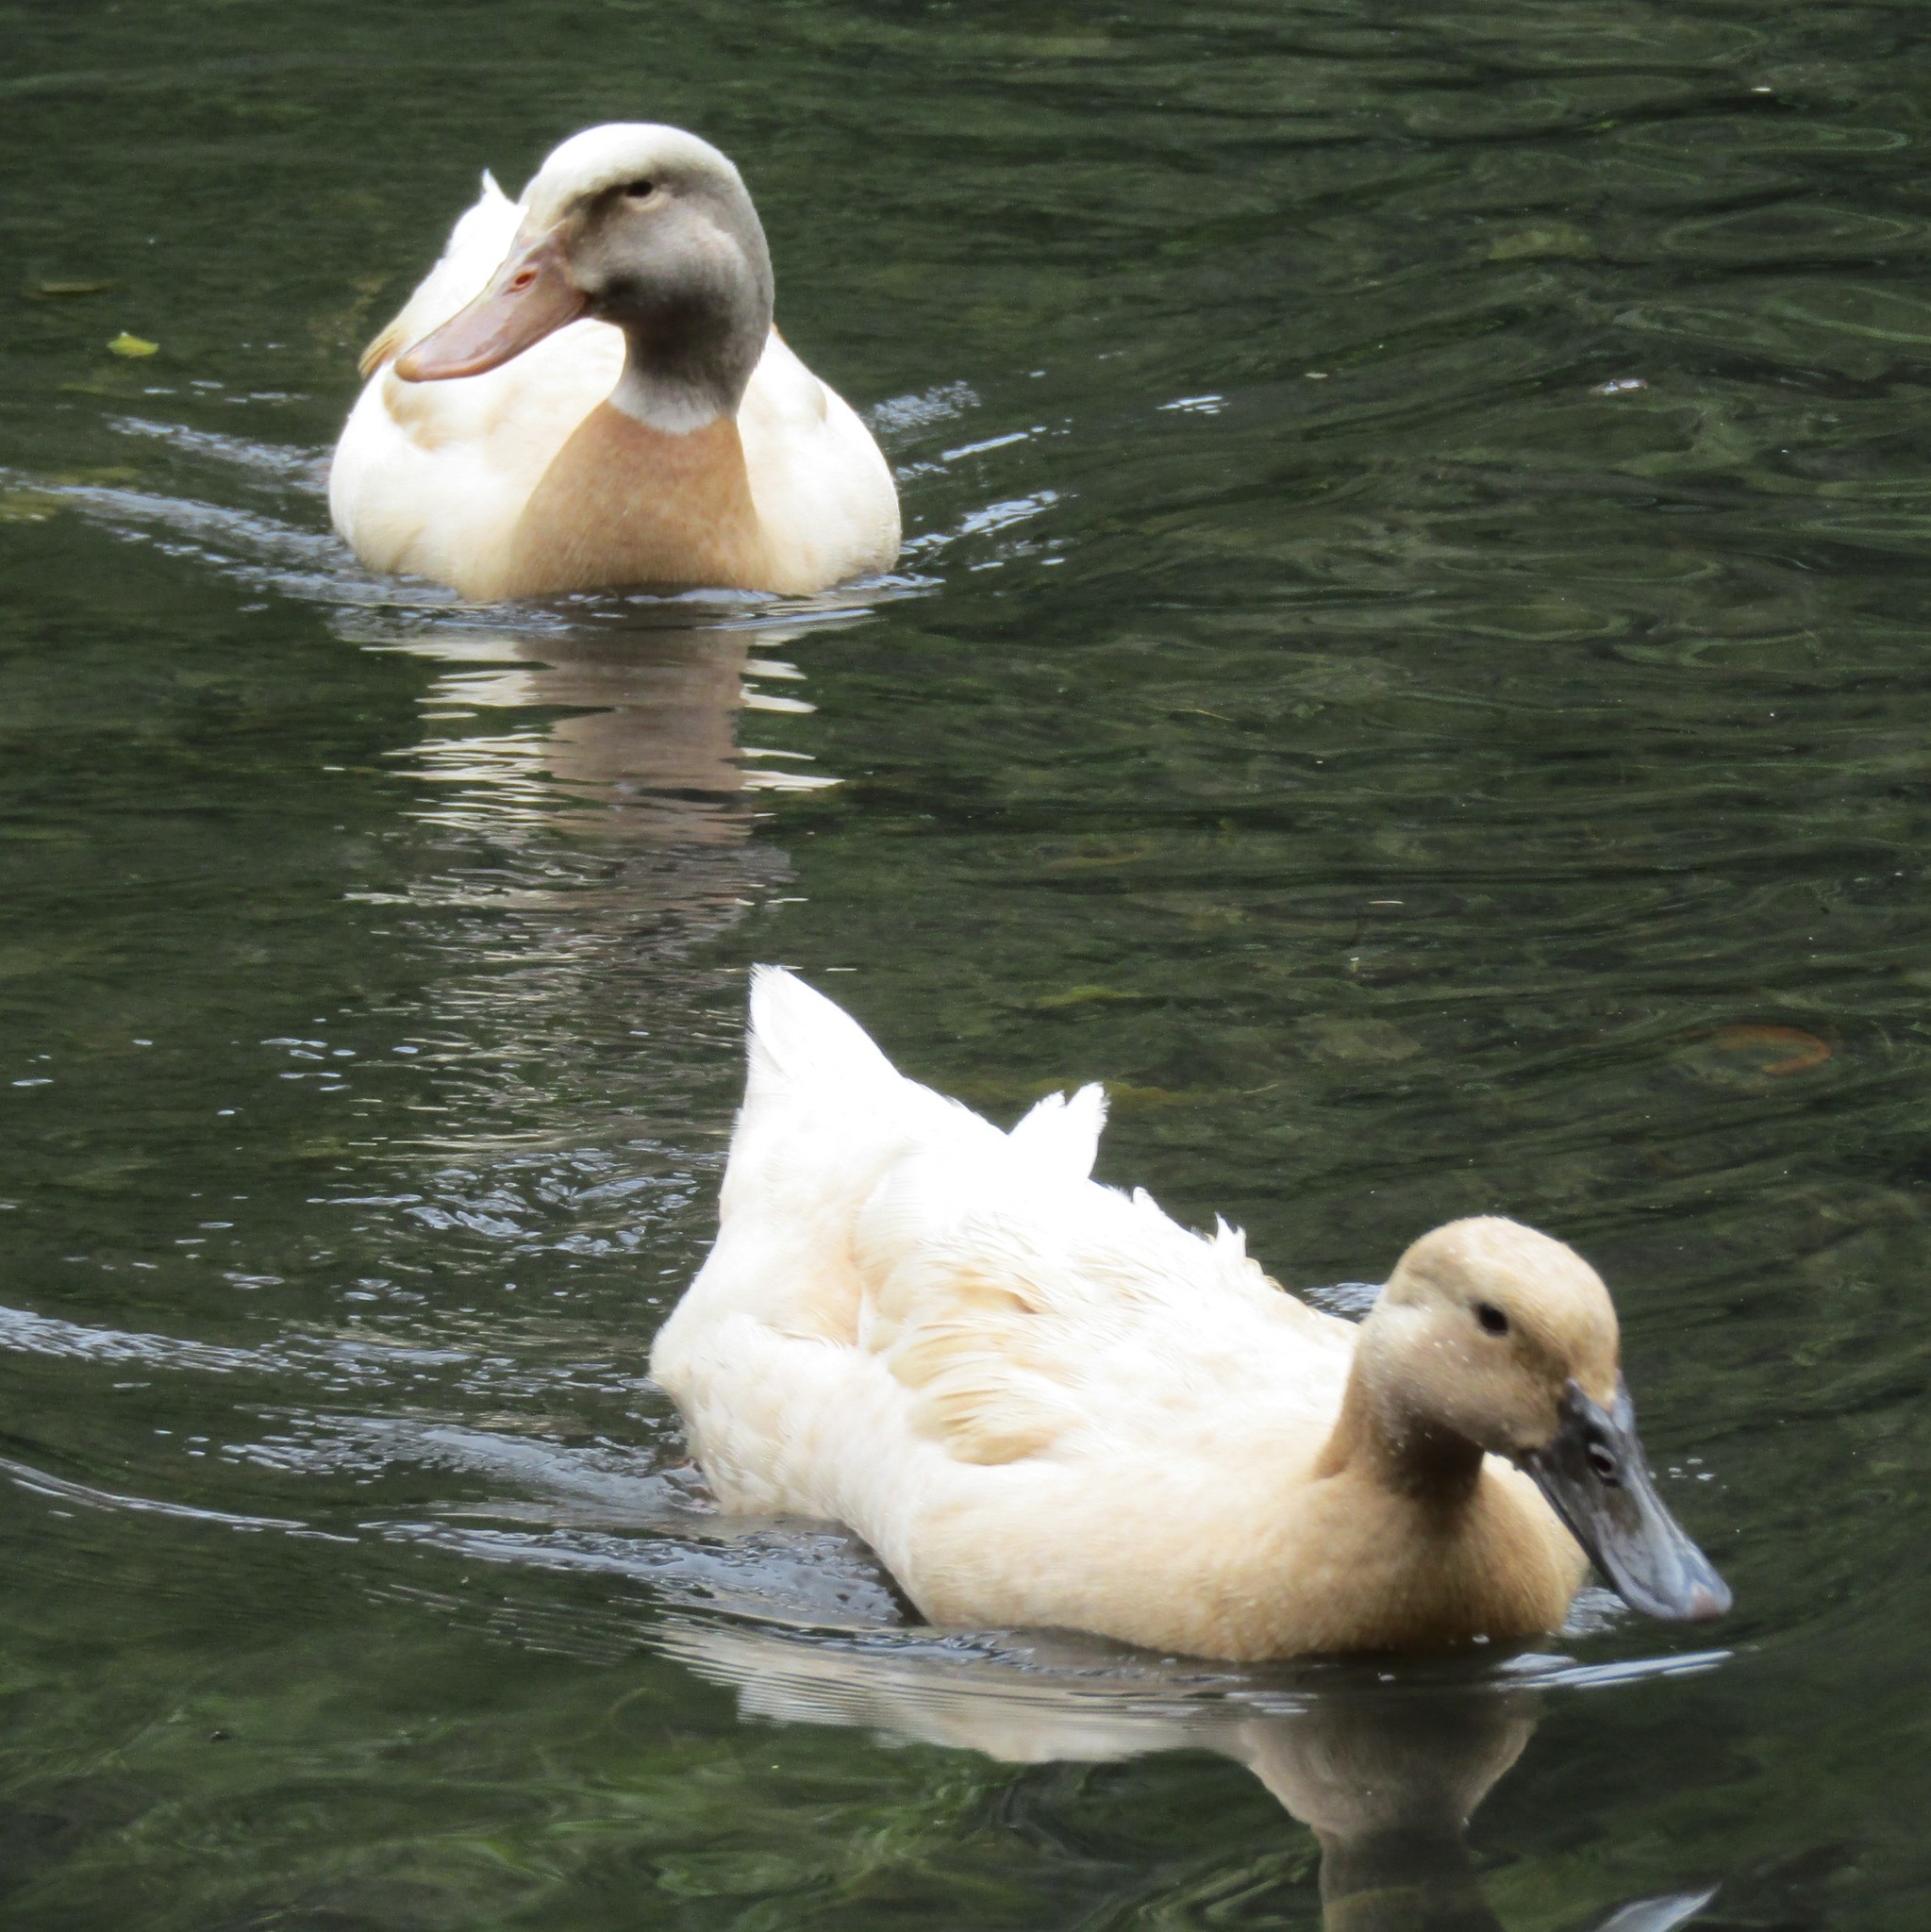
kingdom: Animalia
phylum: Chordata
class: Aves
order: Anseriformes
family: Anatidae
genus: Anas
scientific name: Anas platyrhynchos
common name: Mallard
